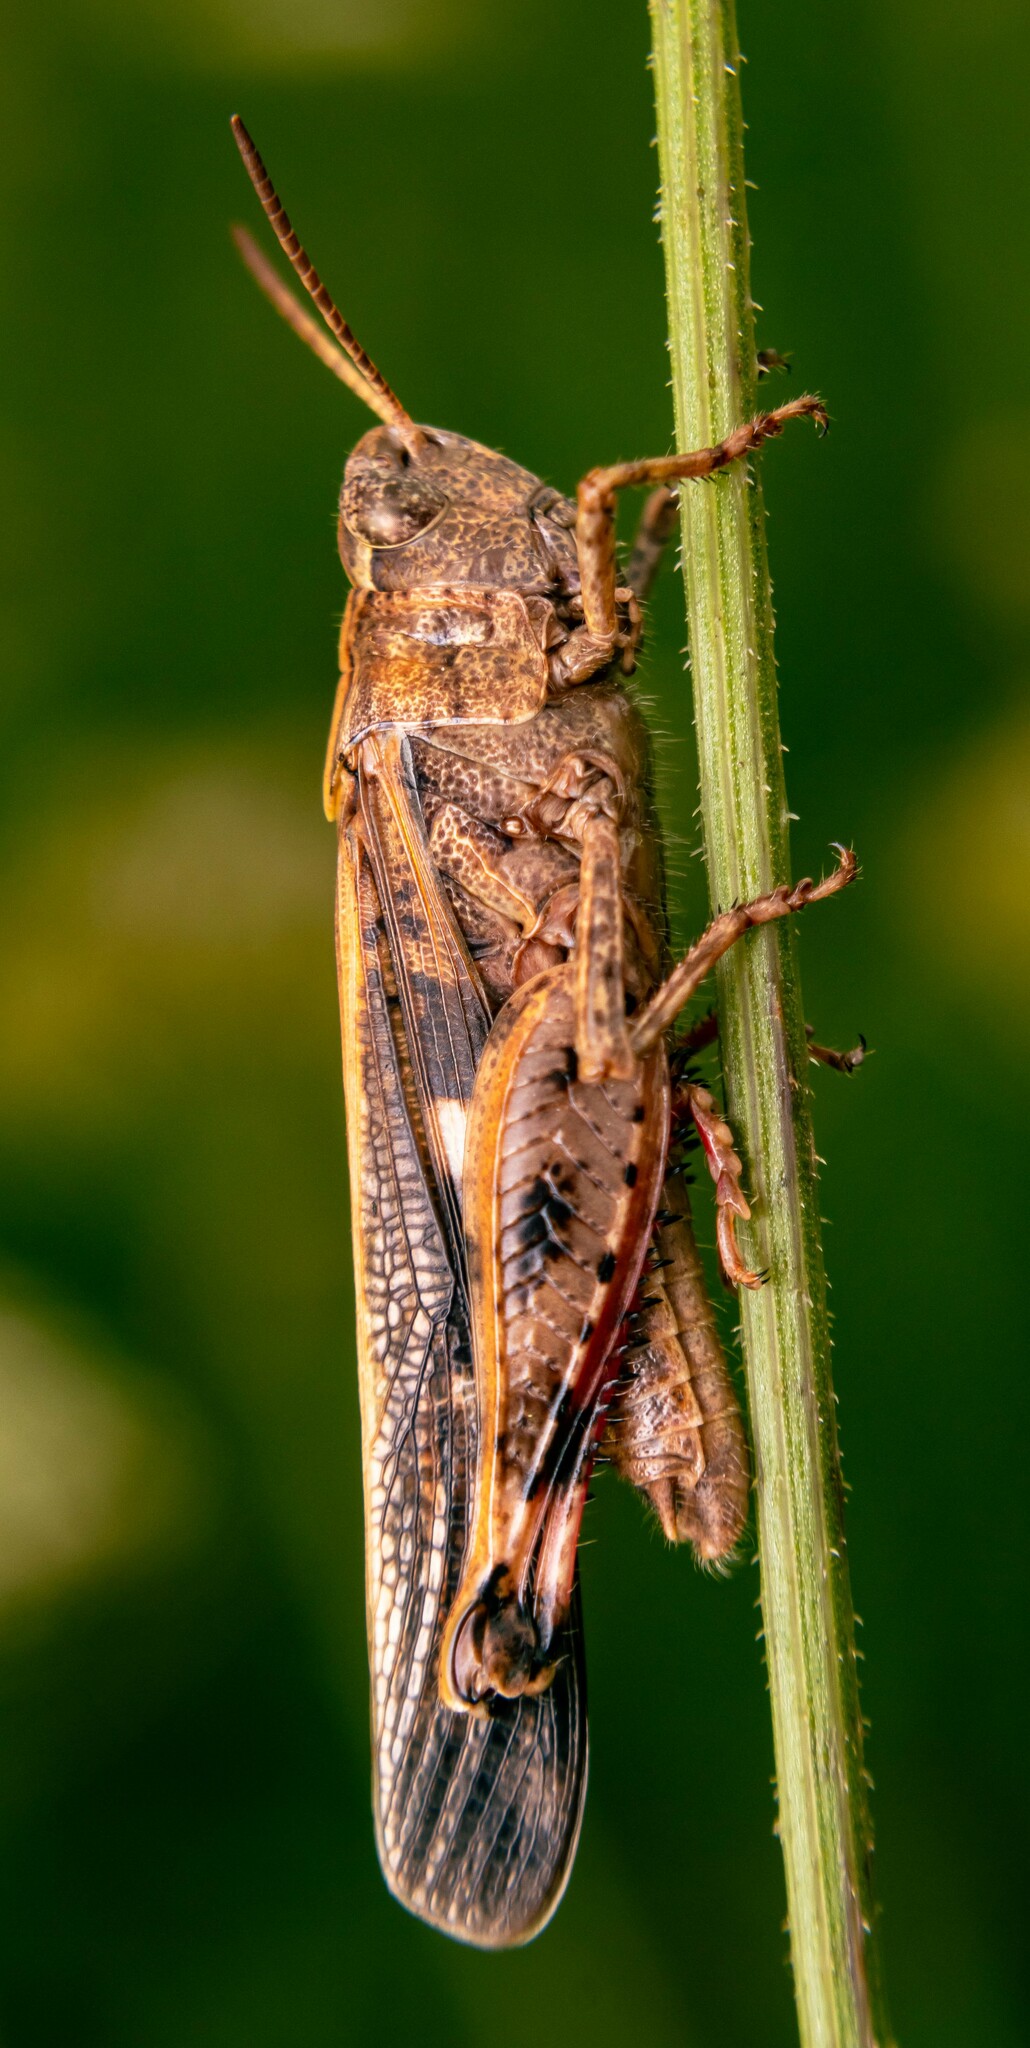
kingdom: Animalia
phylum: Arthropoda
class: Insecta
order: Orthoptera
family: Acrididae
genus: Aiolopus
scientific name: Aiolopus strepens
